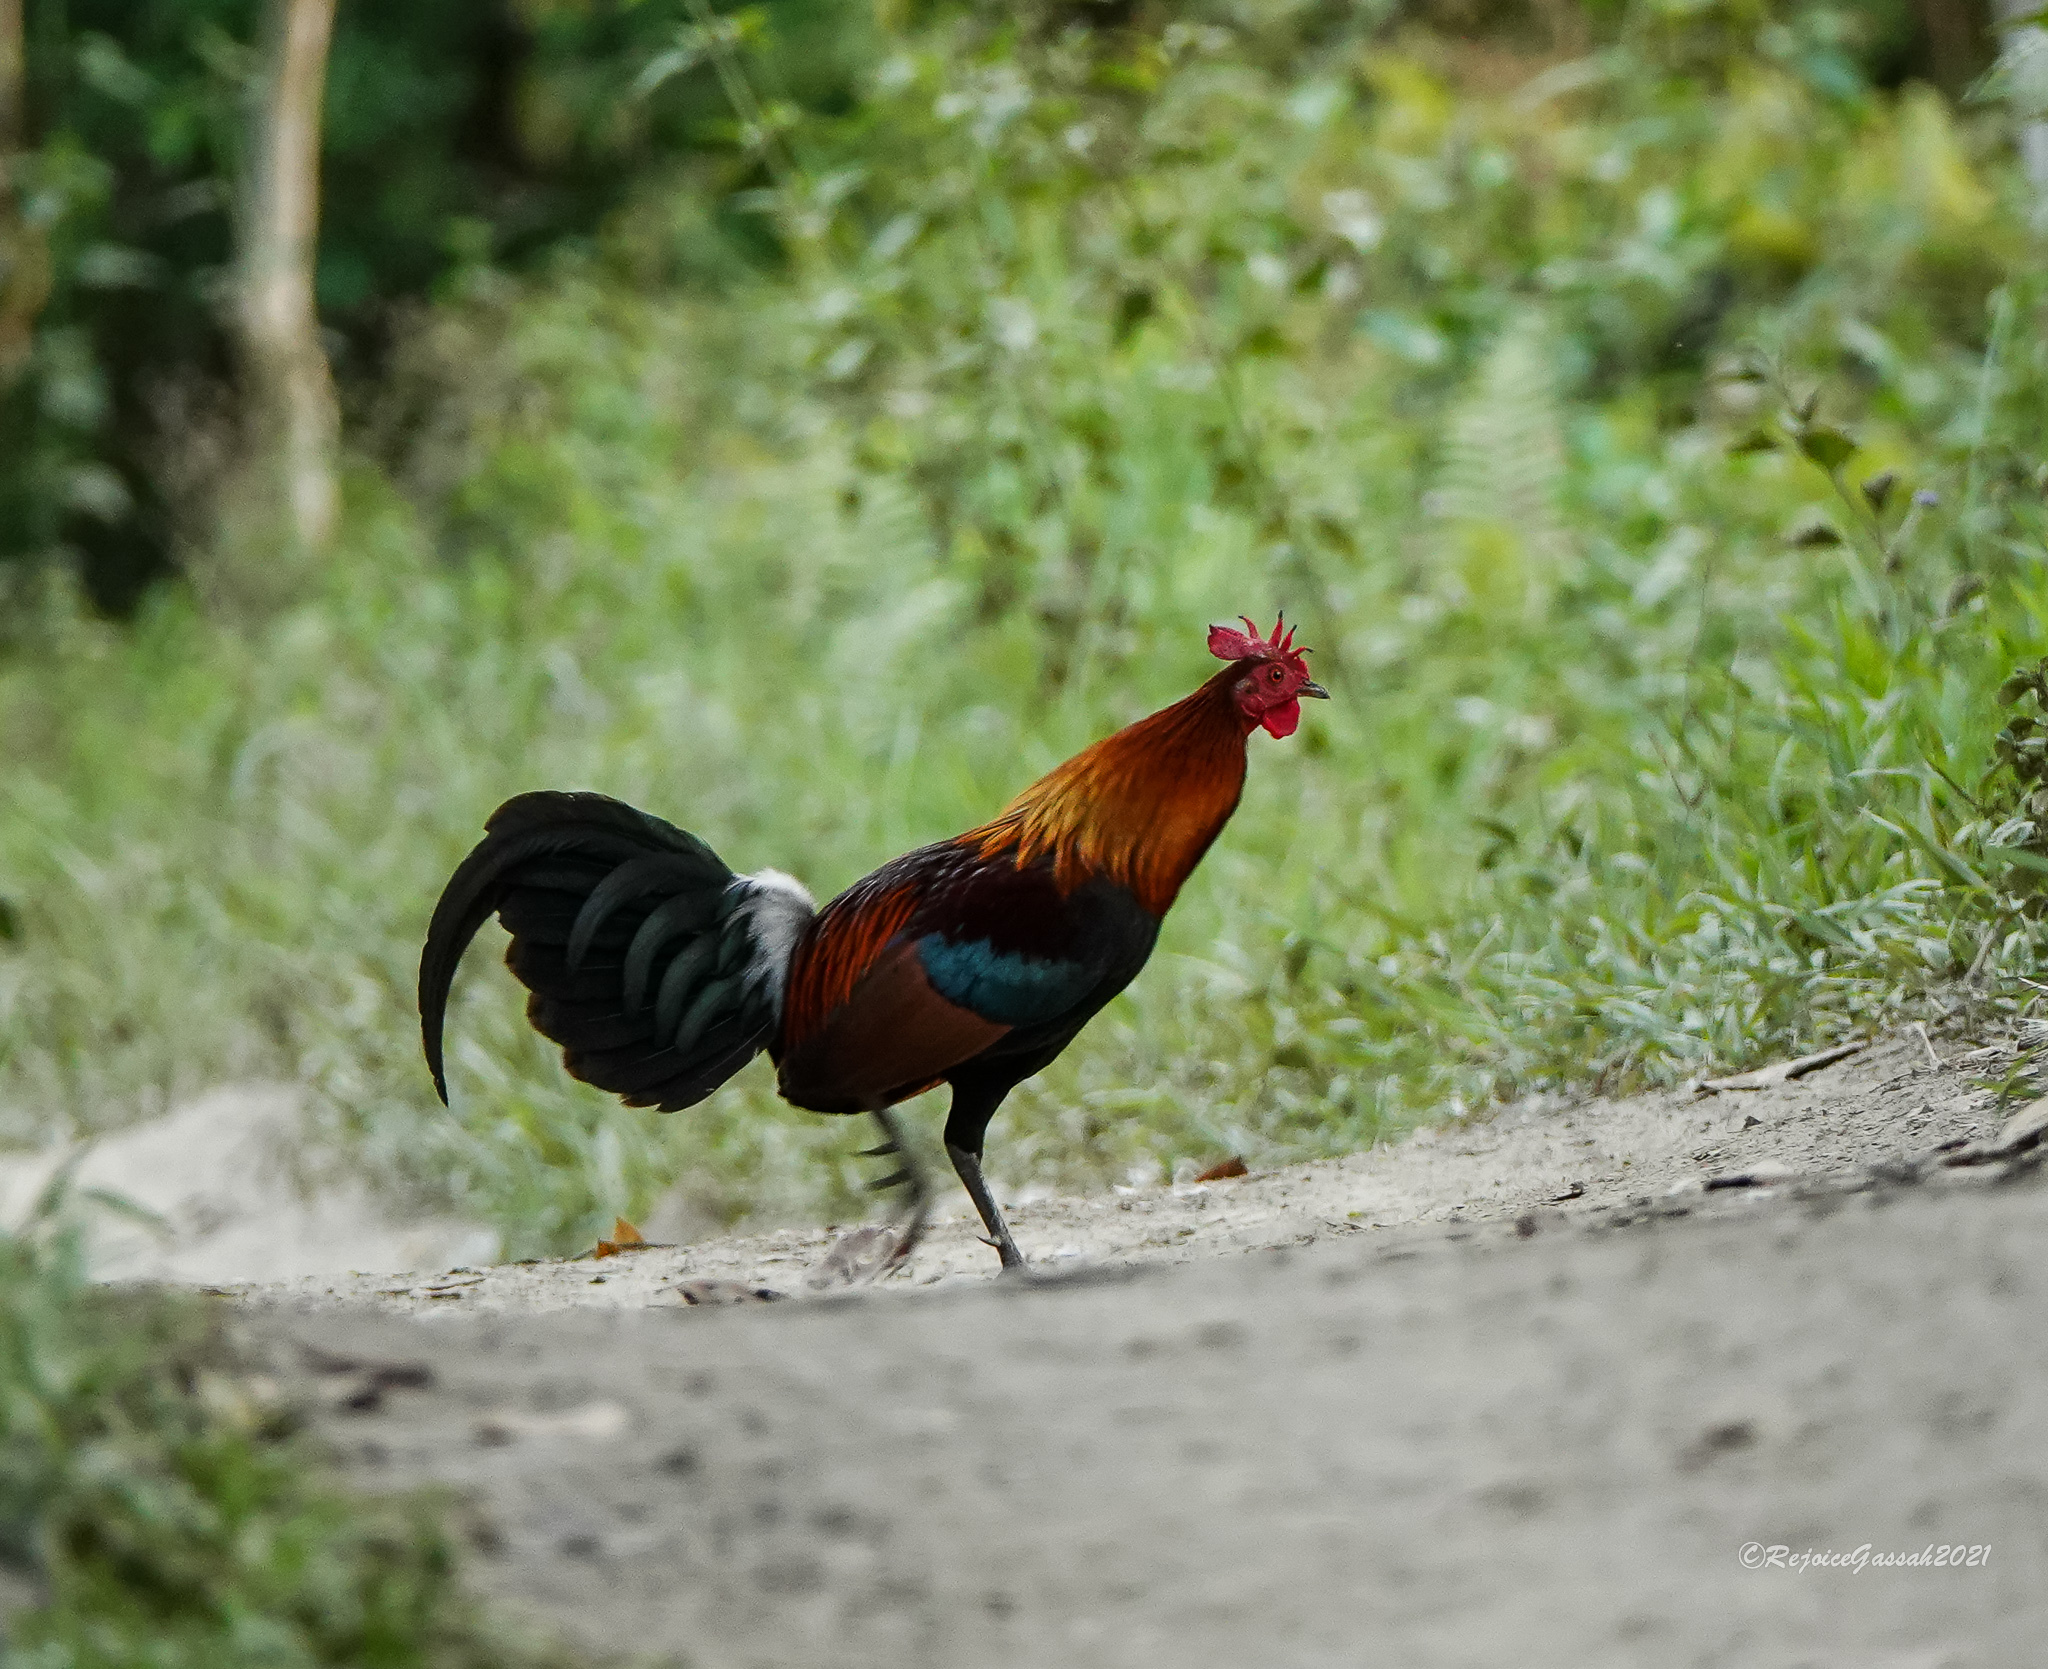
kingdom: Animalia
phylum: Chordata
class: Aves
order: Galliformes
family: Phasianidae
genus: Gallus
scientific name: Gallus gallus
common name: Red junglefowl
